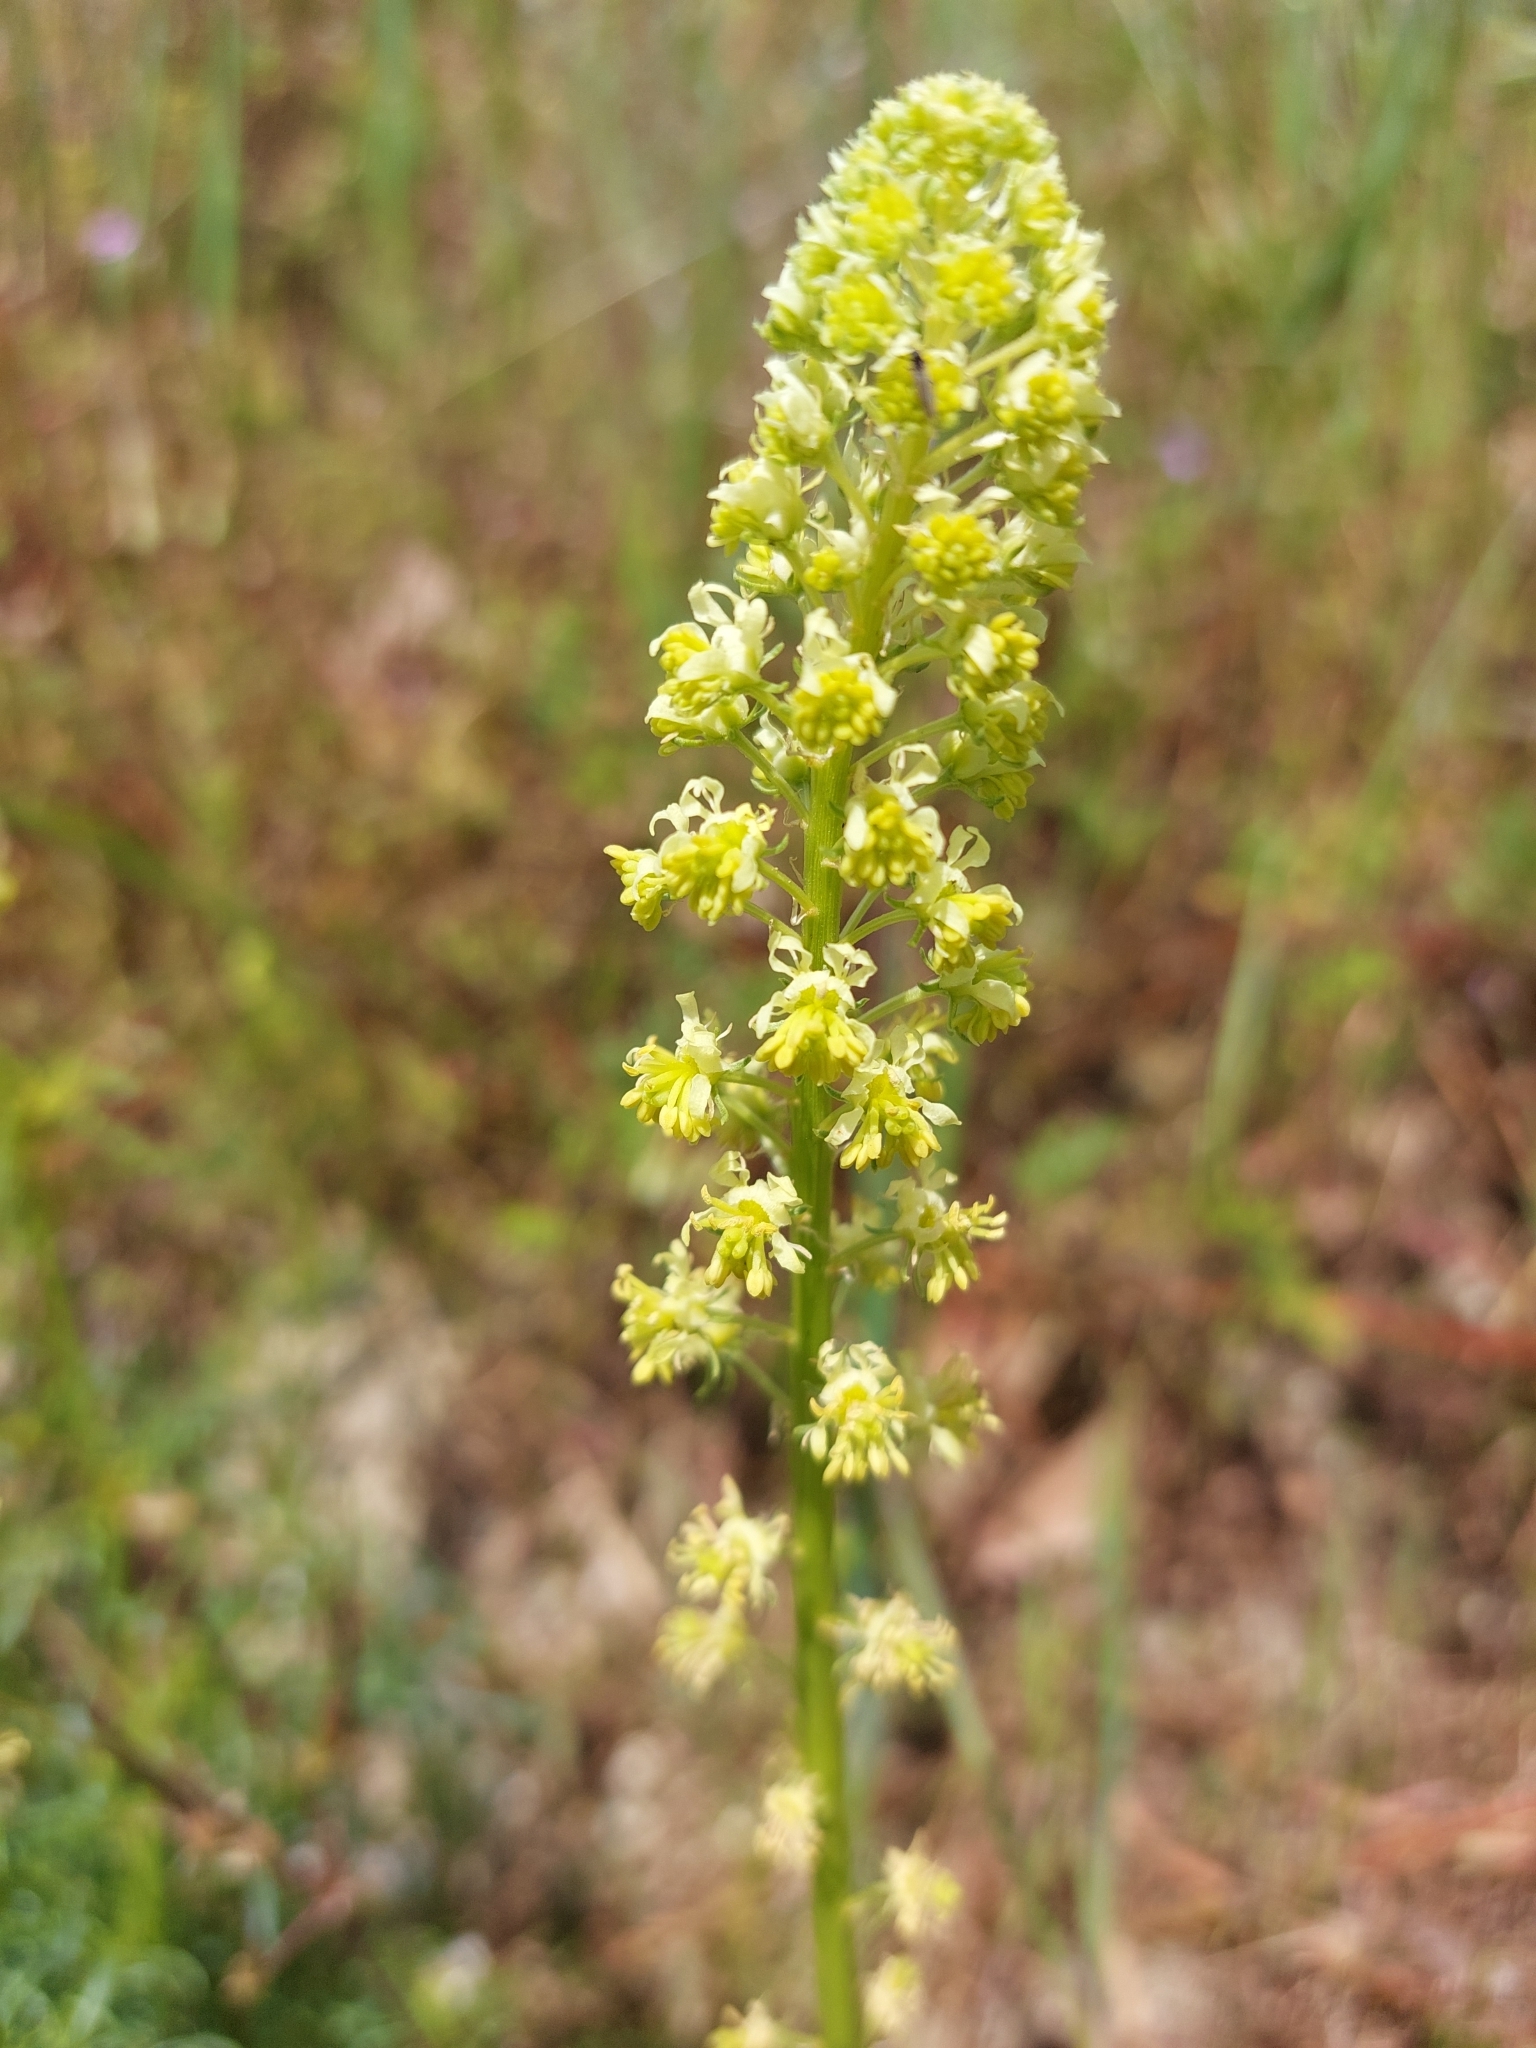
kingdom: Plantae
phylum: Tracheophyta
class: Magnoliopsida
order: Brassicales
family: Resedaceae
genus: Reseda
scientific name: Reseda lutea
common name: Wild mignonette
